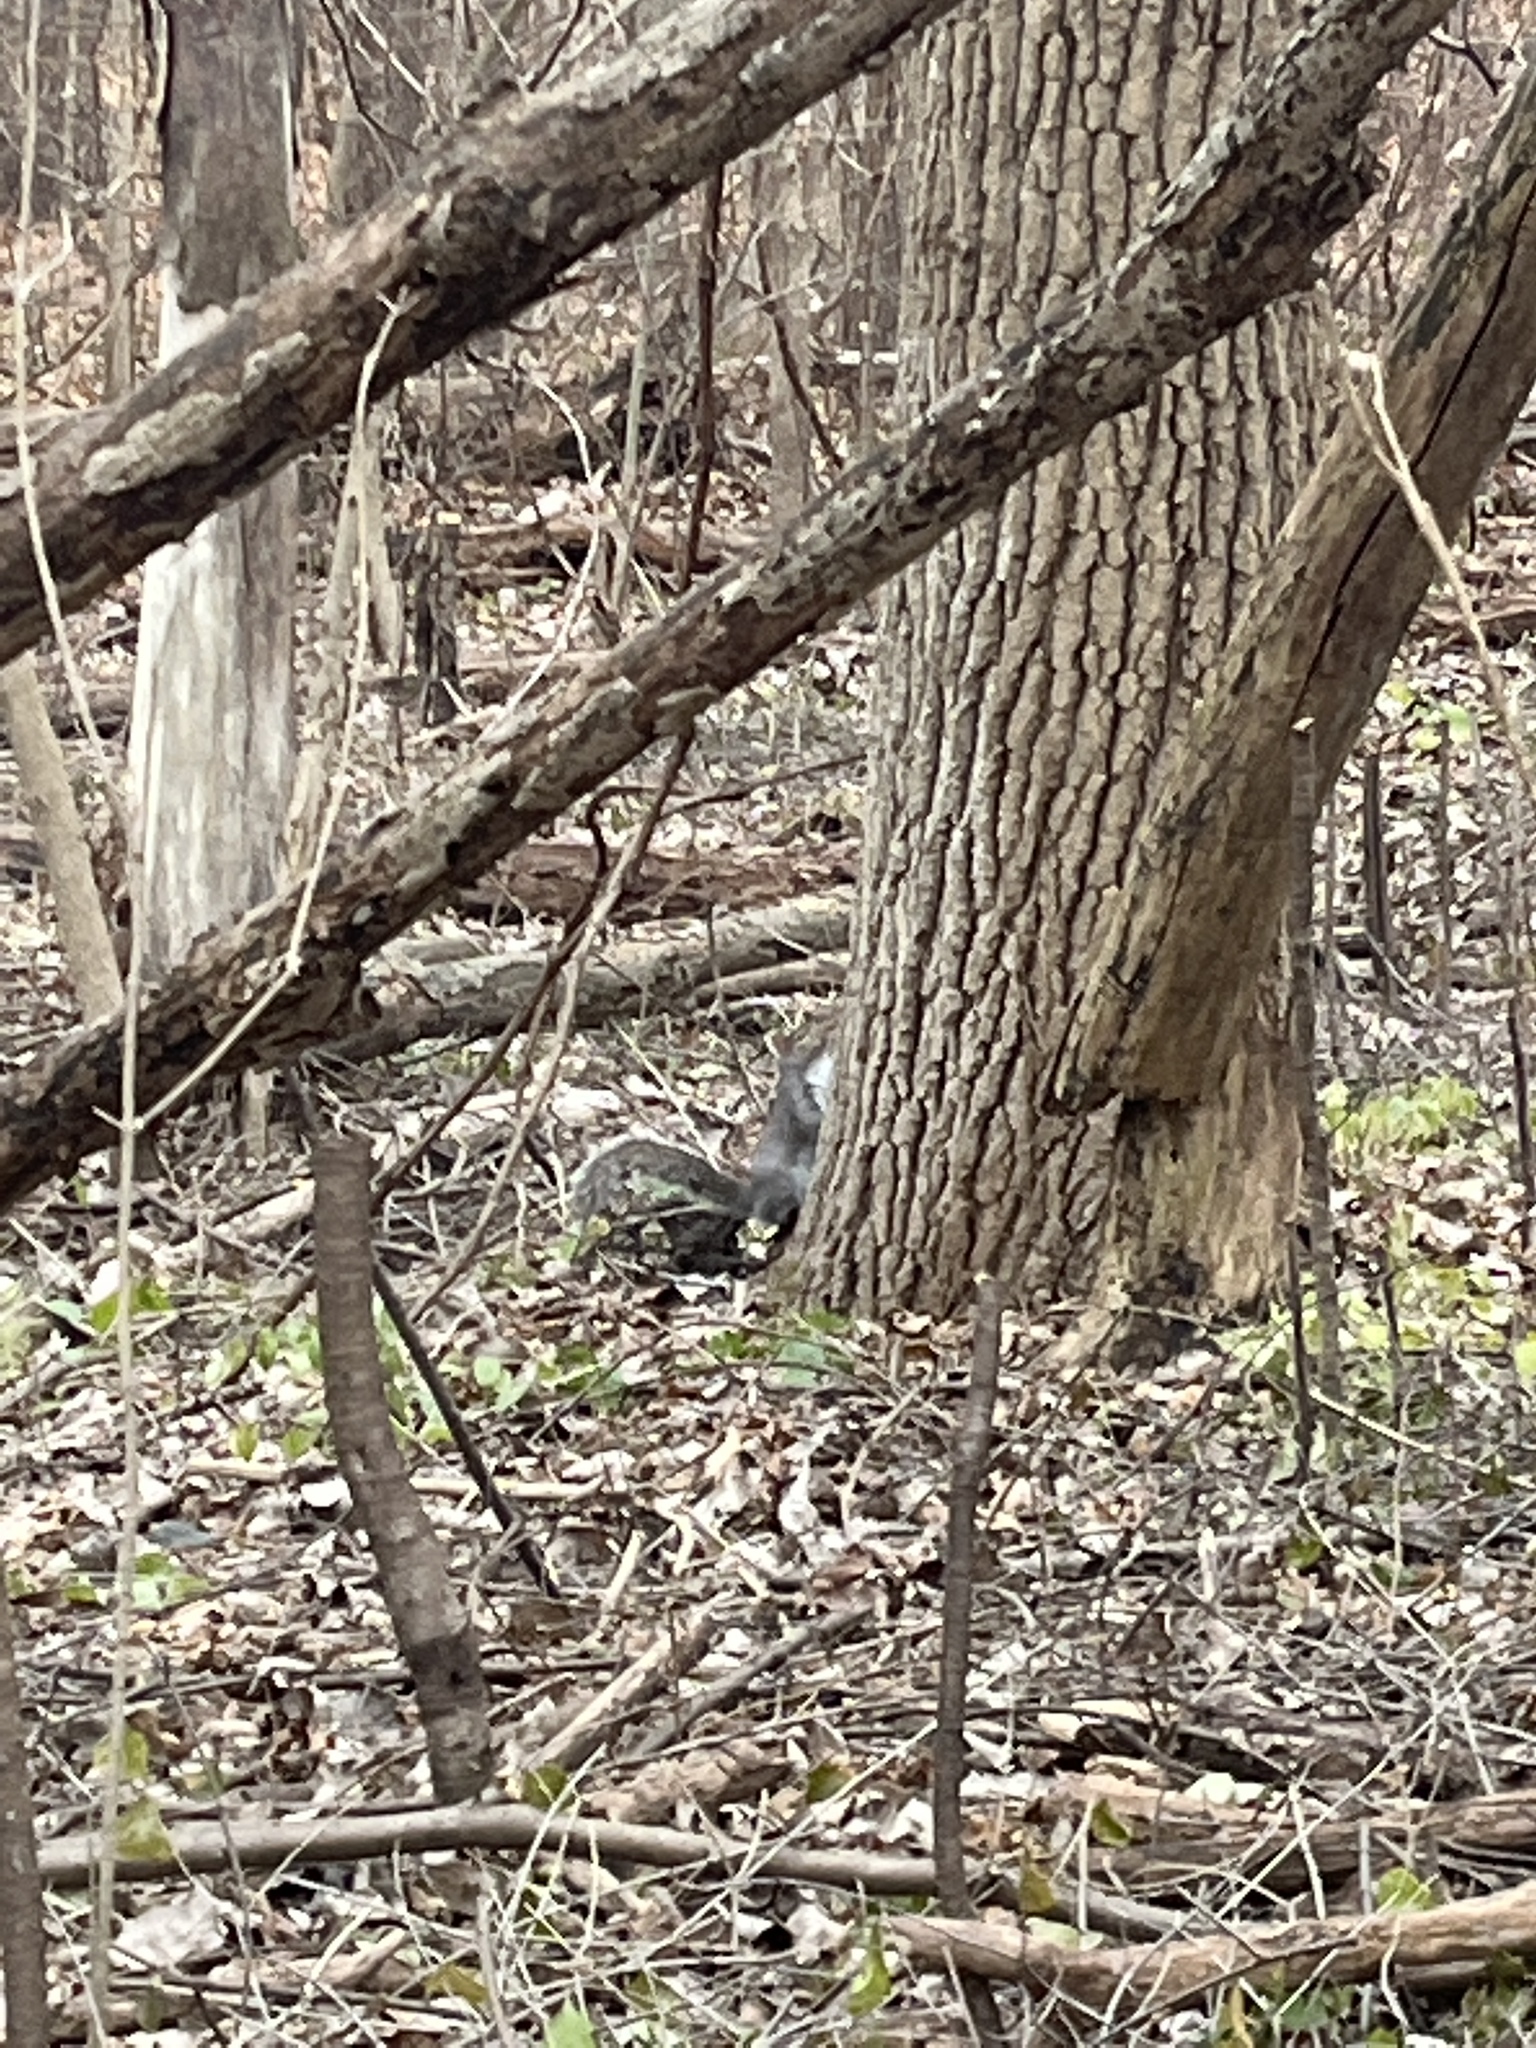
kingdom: Animalia
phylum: Chordata
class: Mammalia
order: Rodentia
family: Sciuridae
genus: Sciurus
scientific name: Sciurus carolinensis
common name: Eastern gray squirrel
